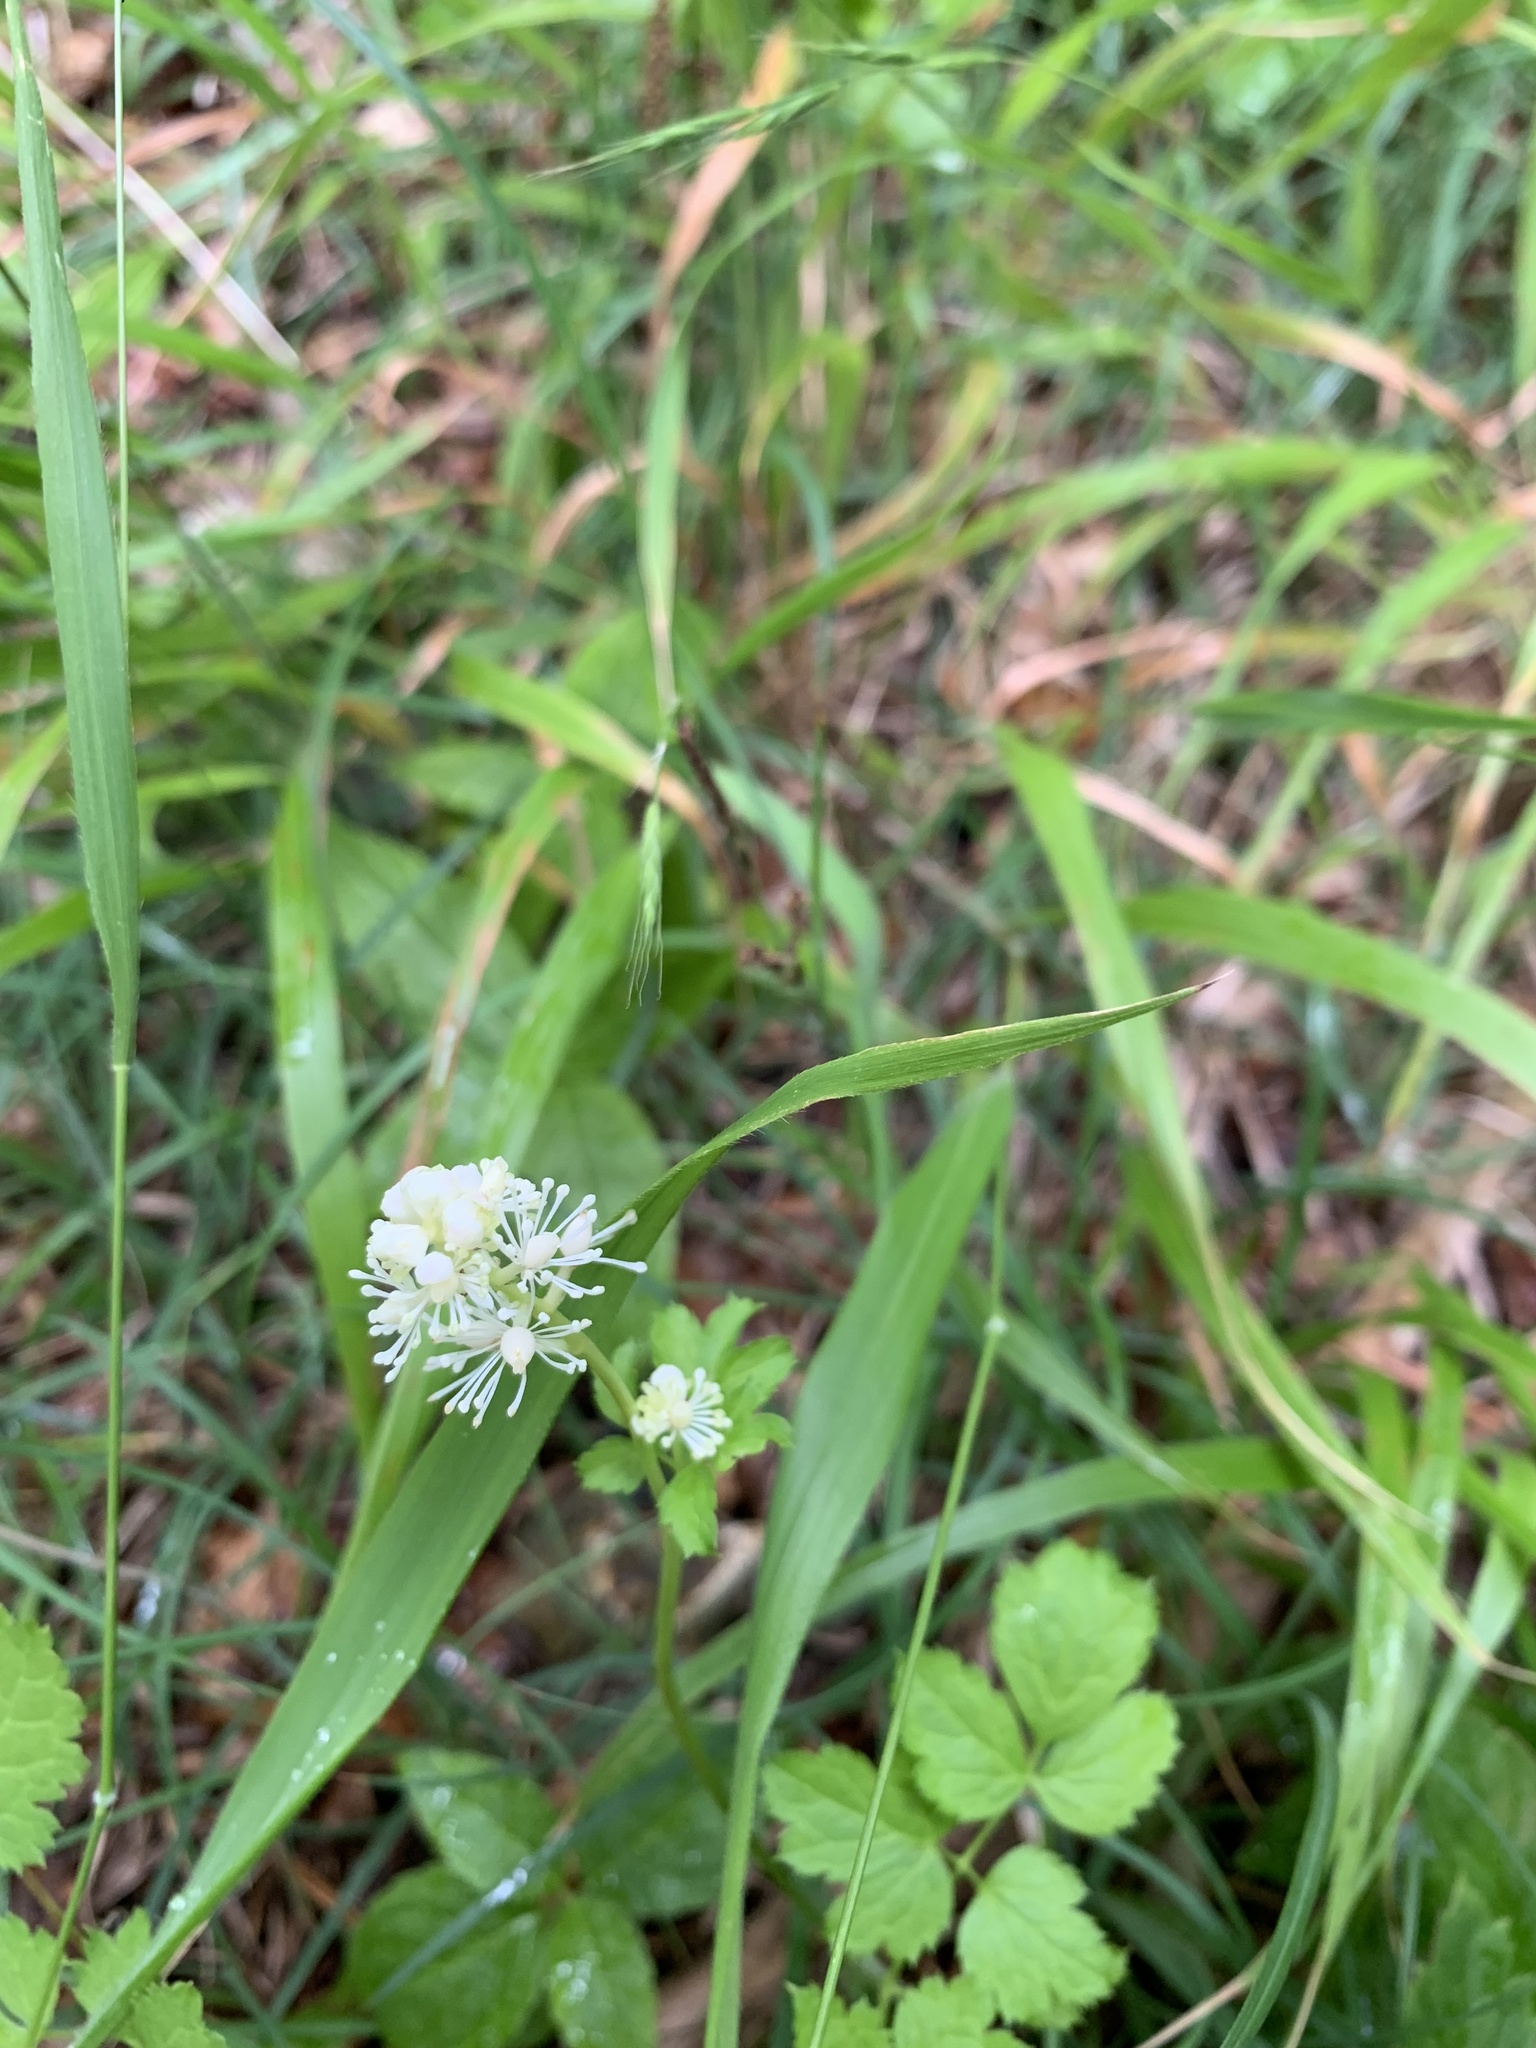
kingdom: Plantae
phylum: Tracheophyta
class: Magnoliopsida
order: Ranunculales
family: Ranunculaceae
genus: Actaea
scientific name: Actaea spicata
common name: Baneberry
